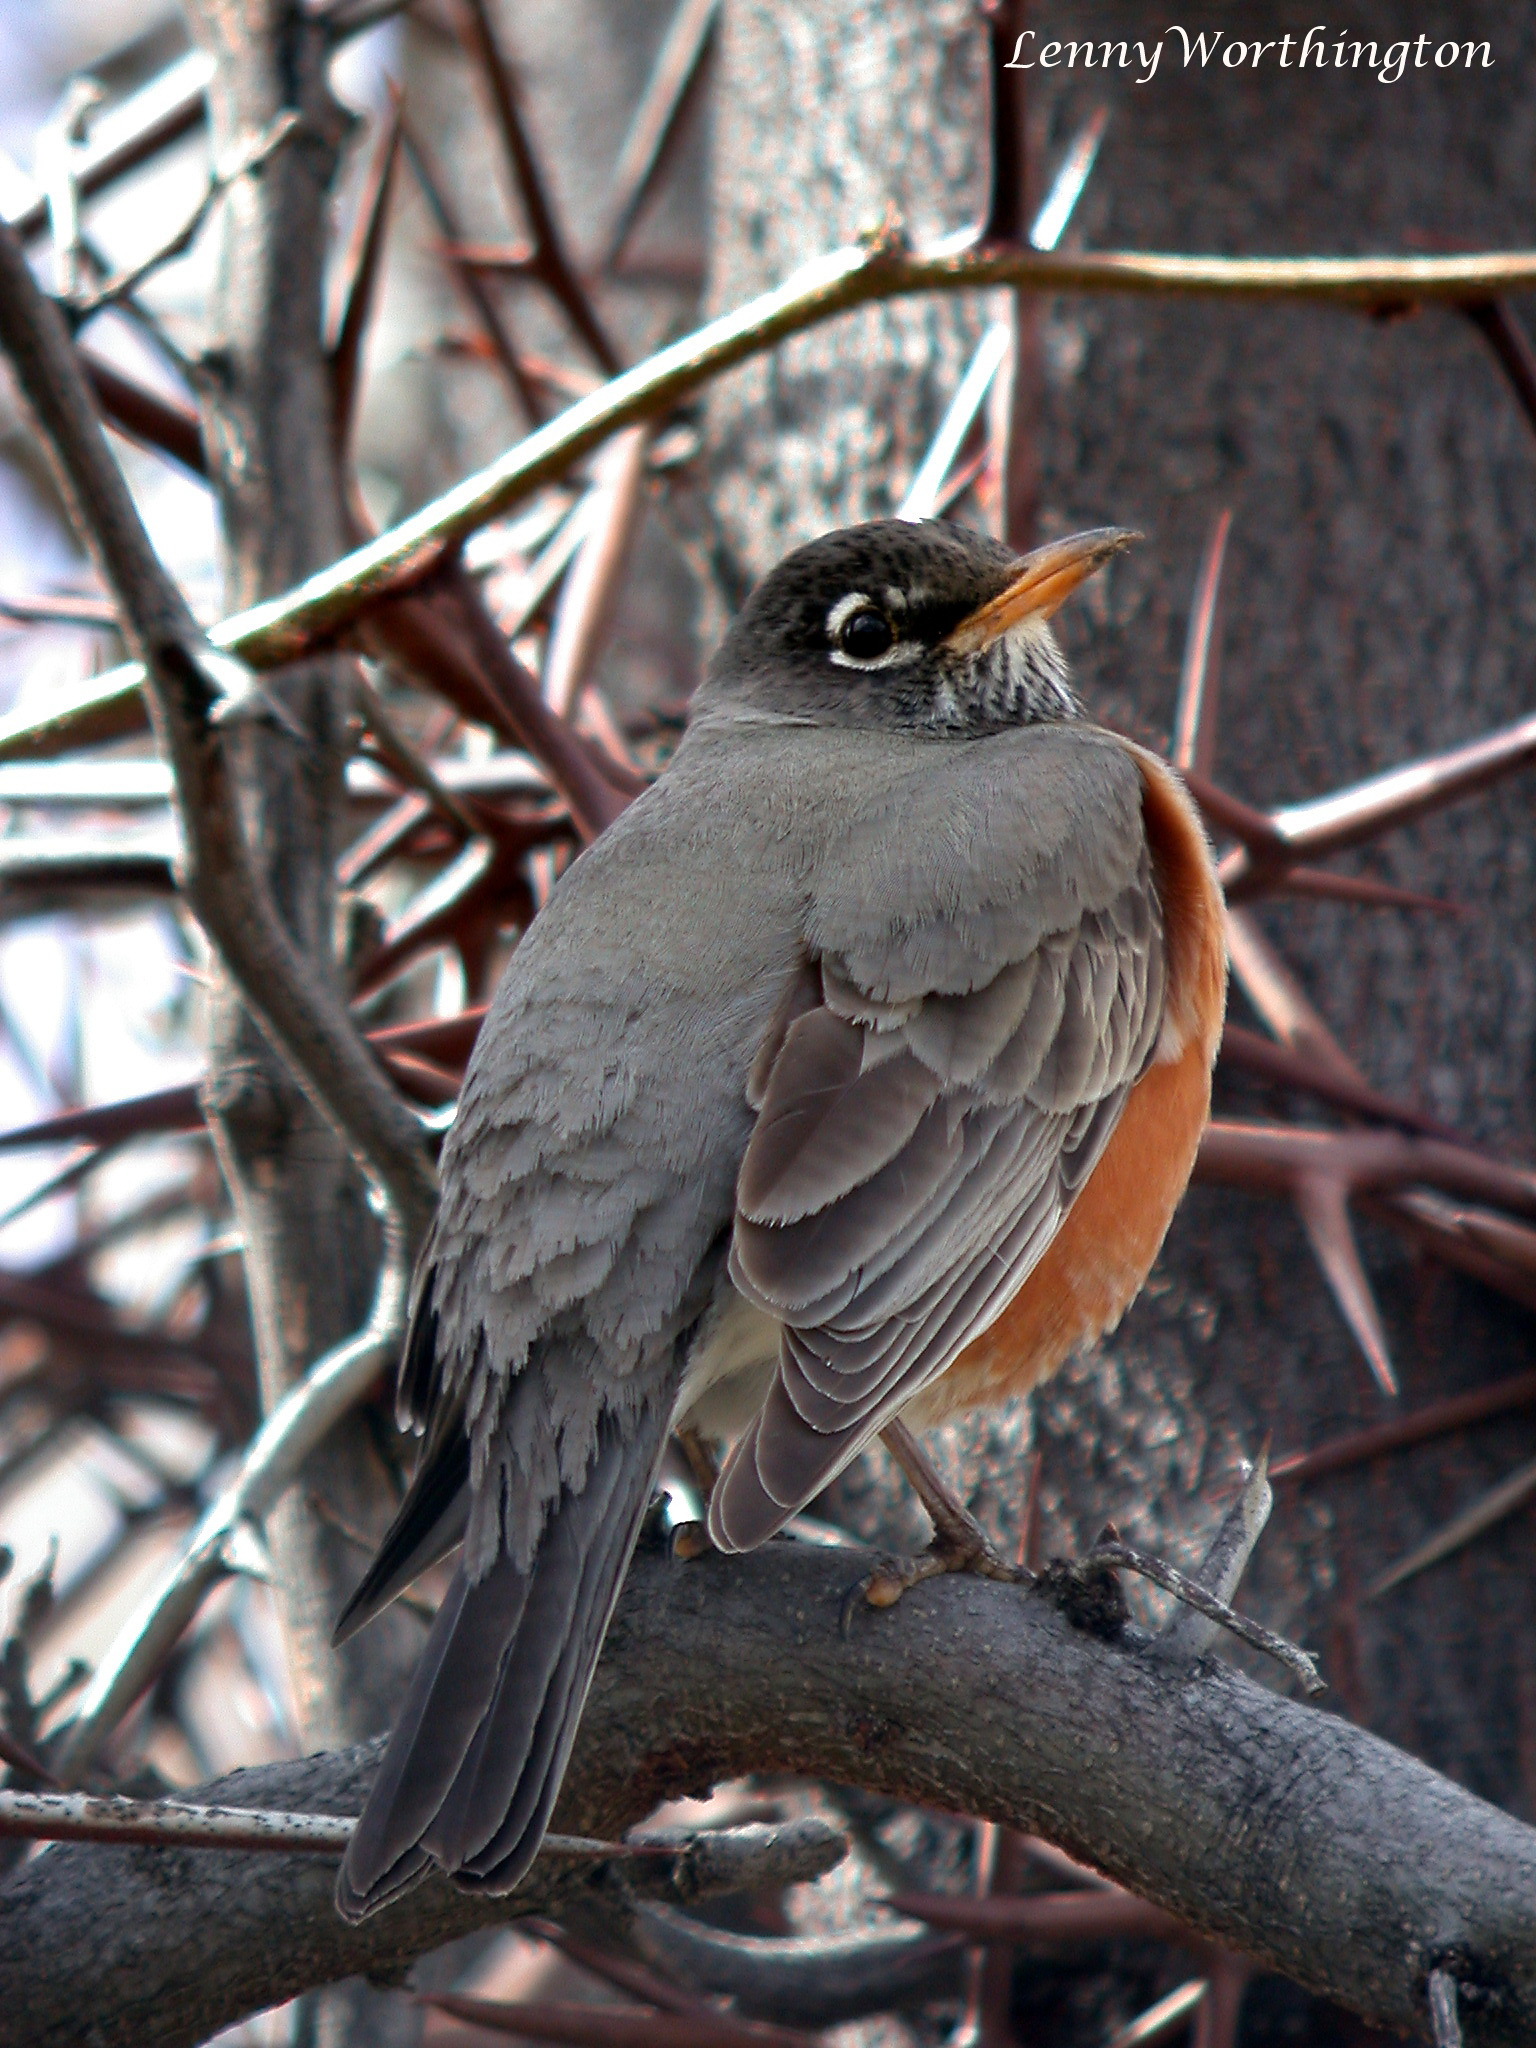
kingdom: Animalia
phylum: Chordata
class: Aves
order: Passeriformes
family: Turdidae
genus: Turdus
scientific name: Turdus migratorius
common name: American robin
